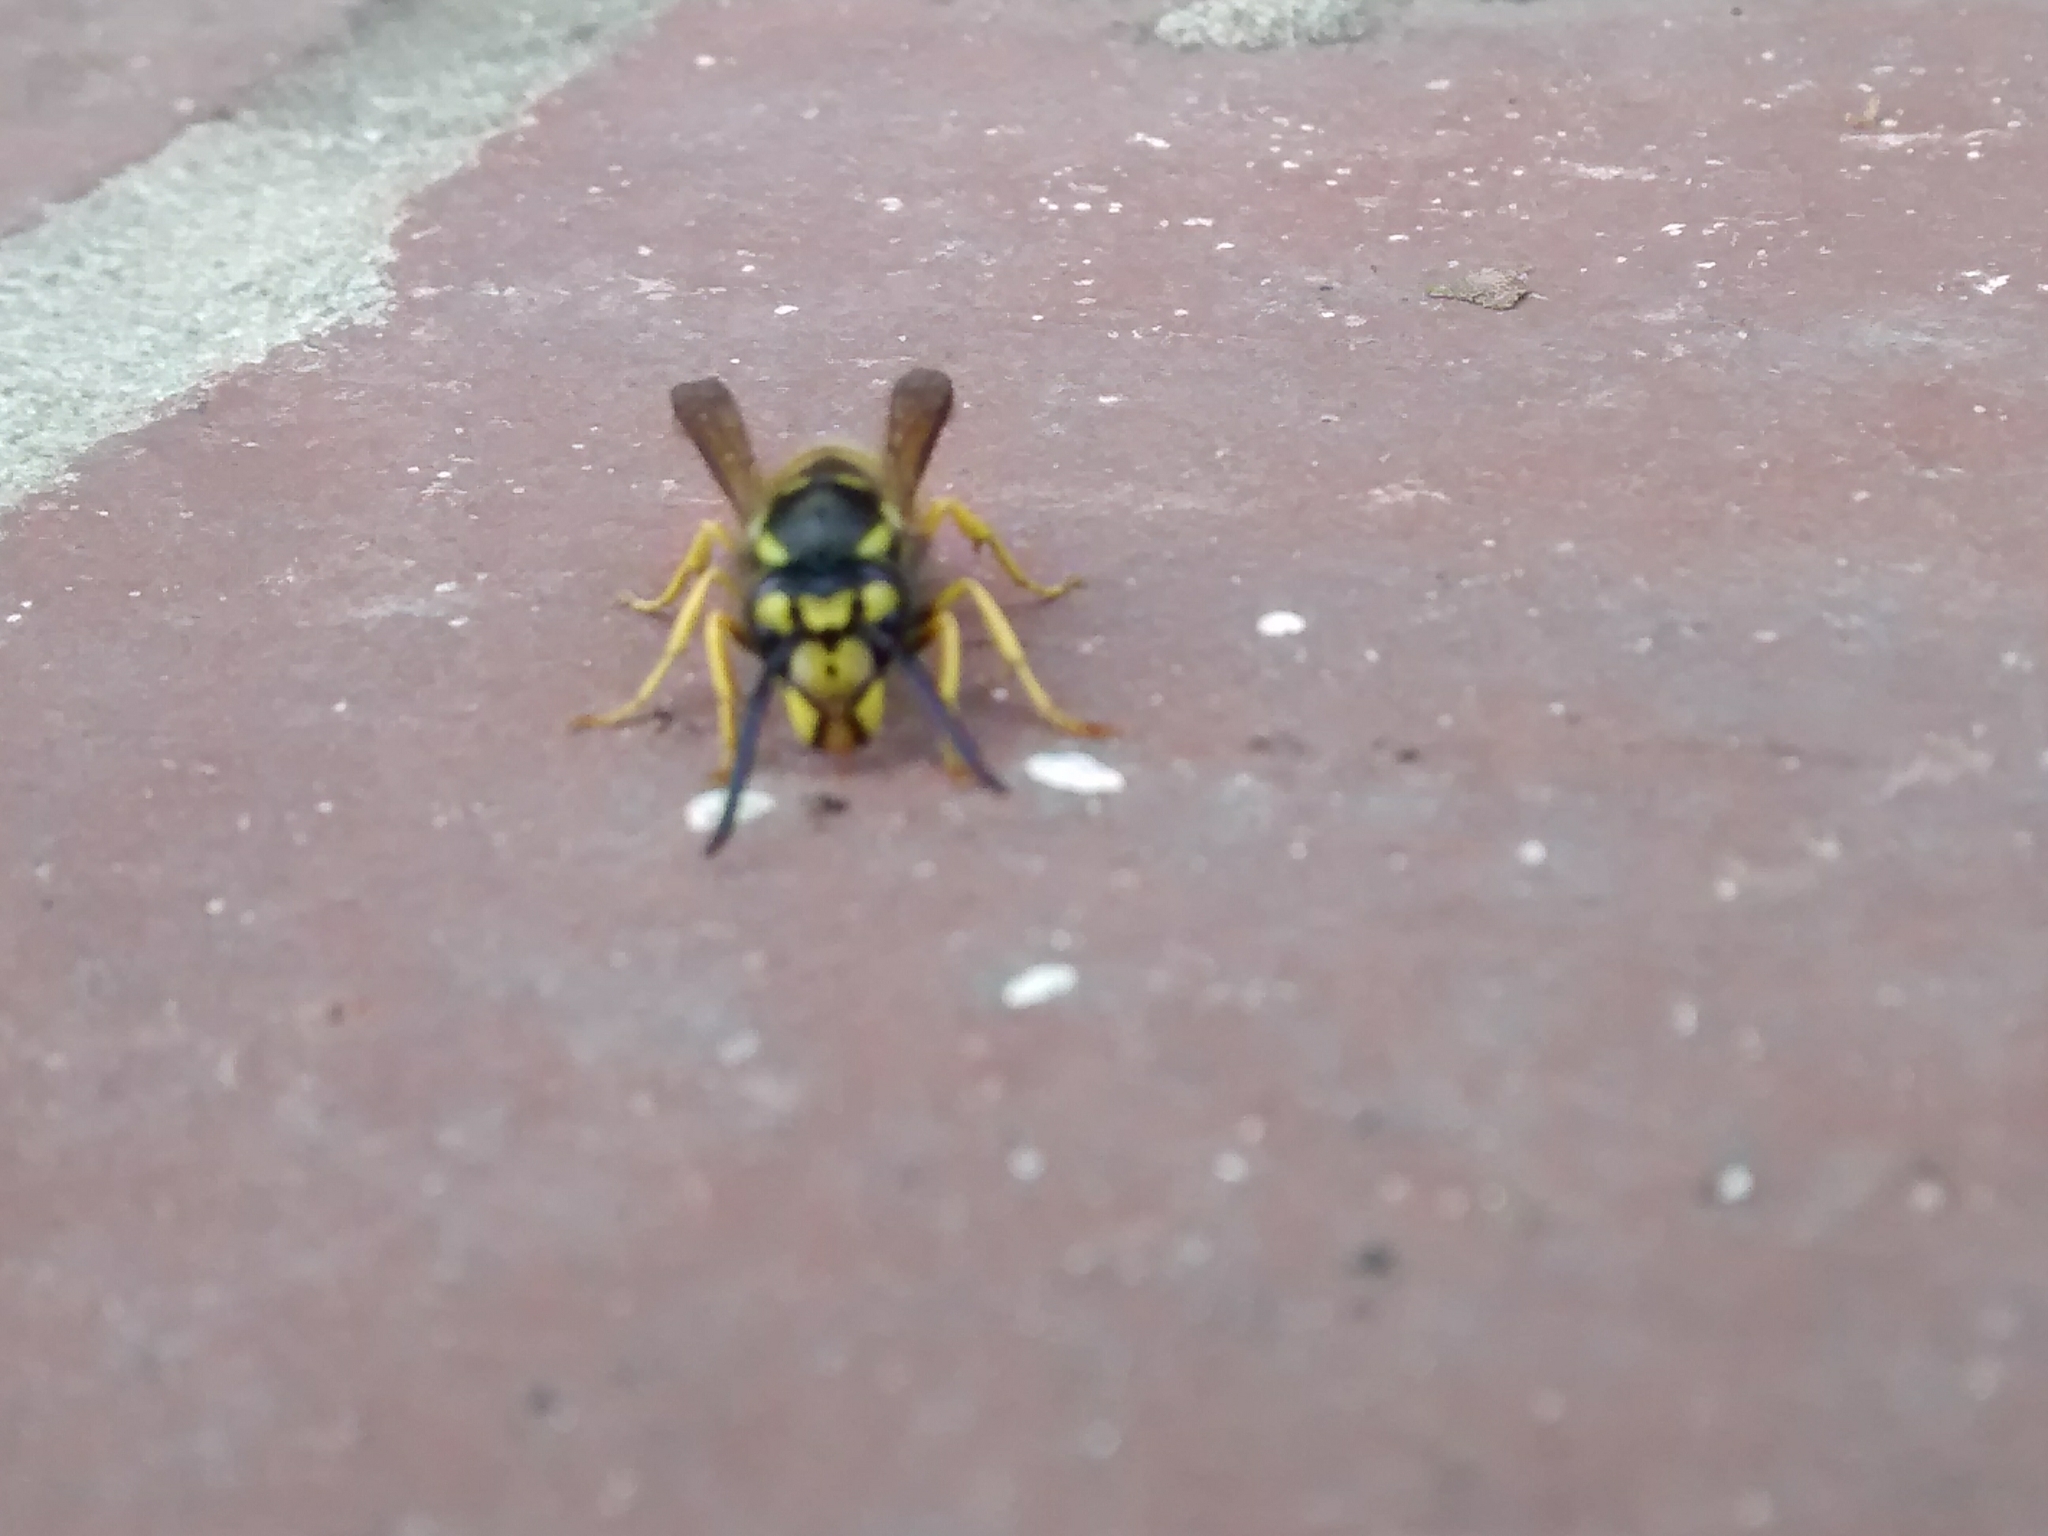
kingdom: Animalia
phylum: Arthropoda
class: Insecta
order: Hymenoptera
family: Vespidae
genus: Vespula
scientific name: Vespula germanica
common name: German wasp
